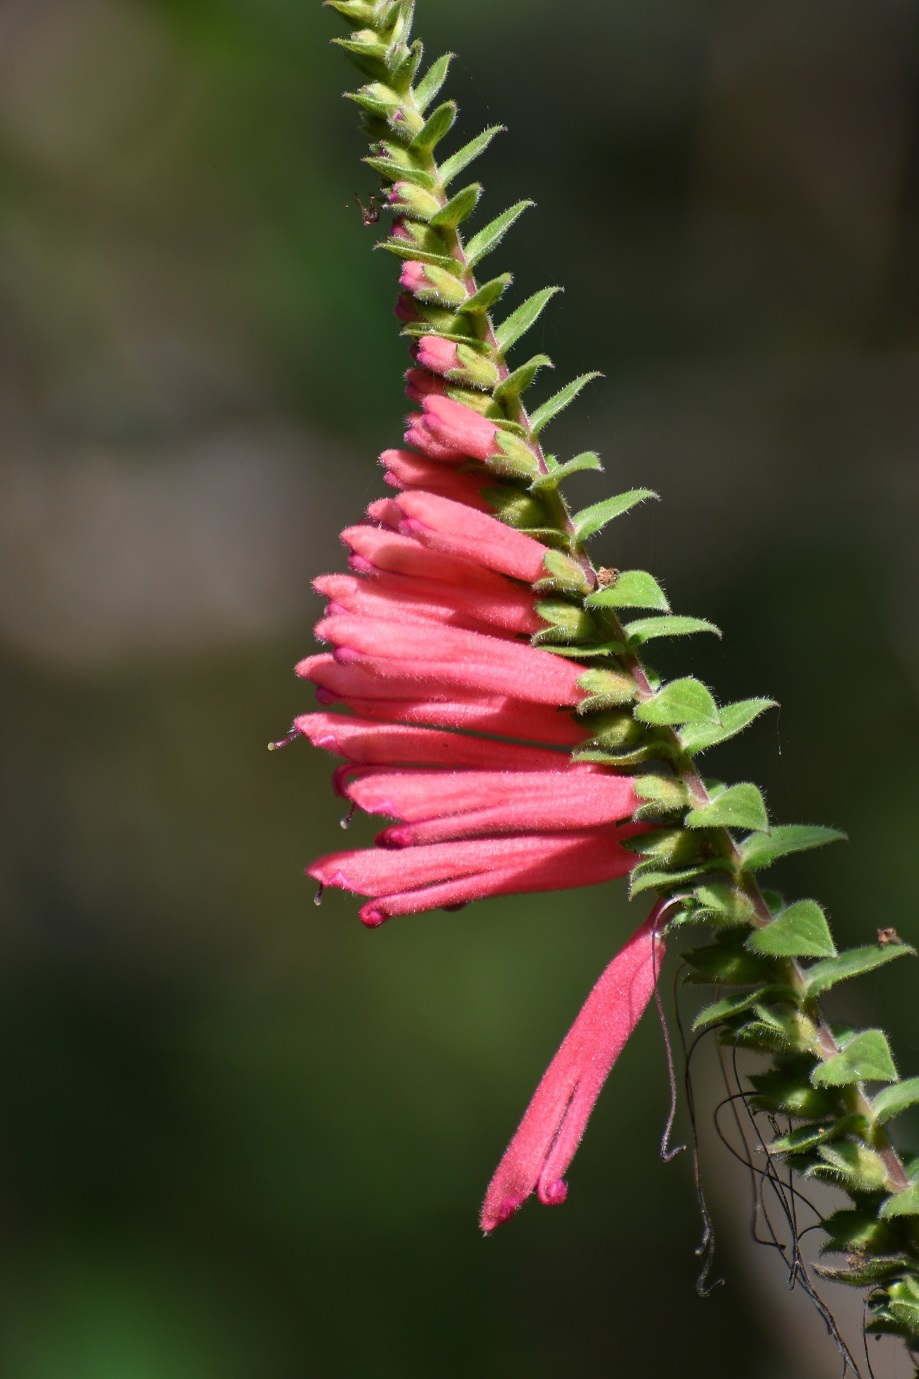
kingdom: Plantae
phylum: Tracheophyta
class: Magnoliopsida
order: Lamiales
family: Orobanchaceae
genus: Lamourouxia
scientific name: Lamourouxia viscosa
